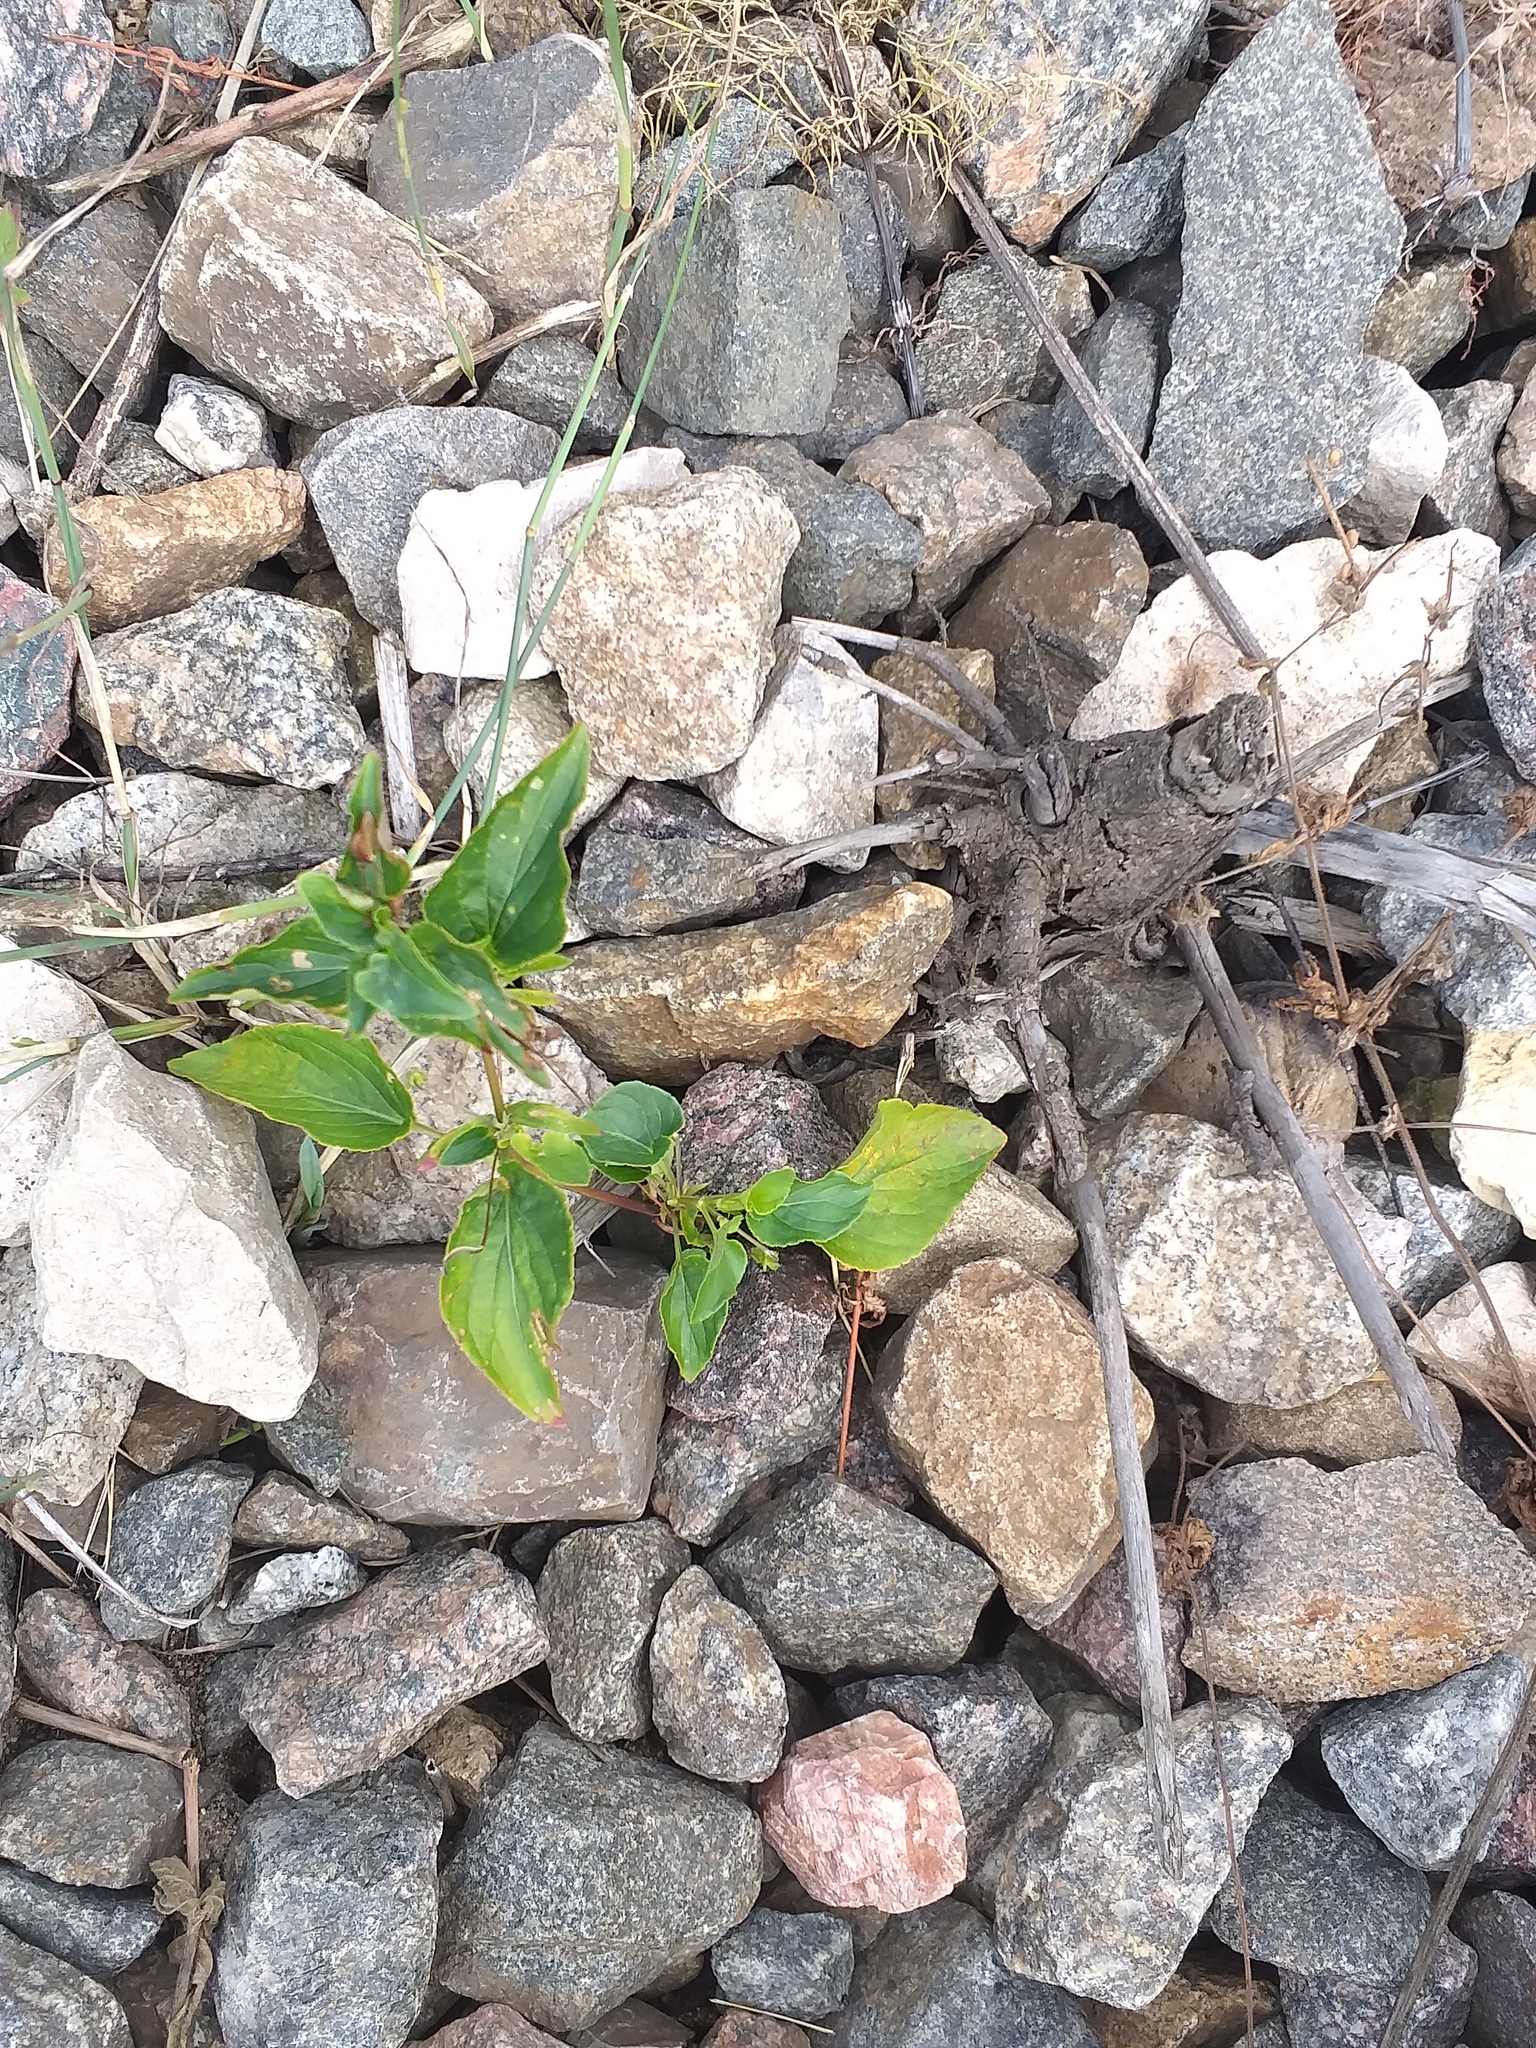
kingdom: Plantae
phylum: Tracheophyta
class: Magnoliopsida
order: Malpighiales
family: Violaceae
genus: Viola
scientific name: Viola
